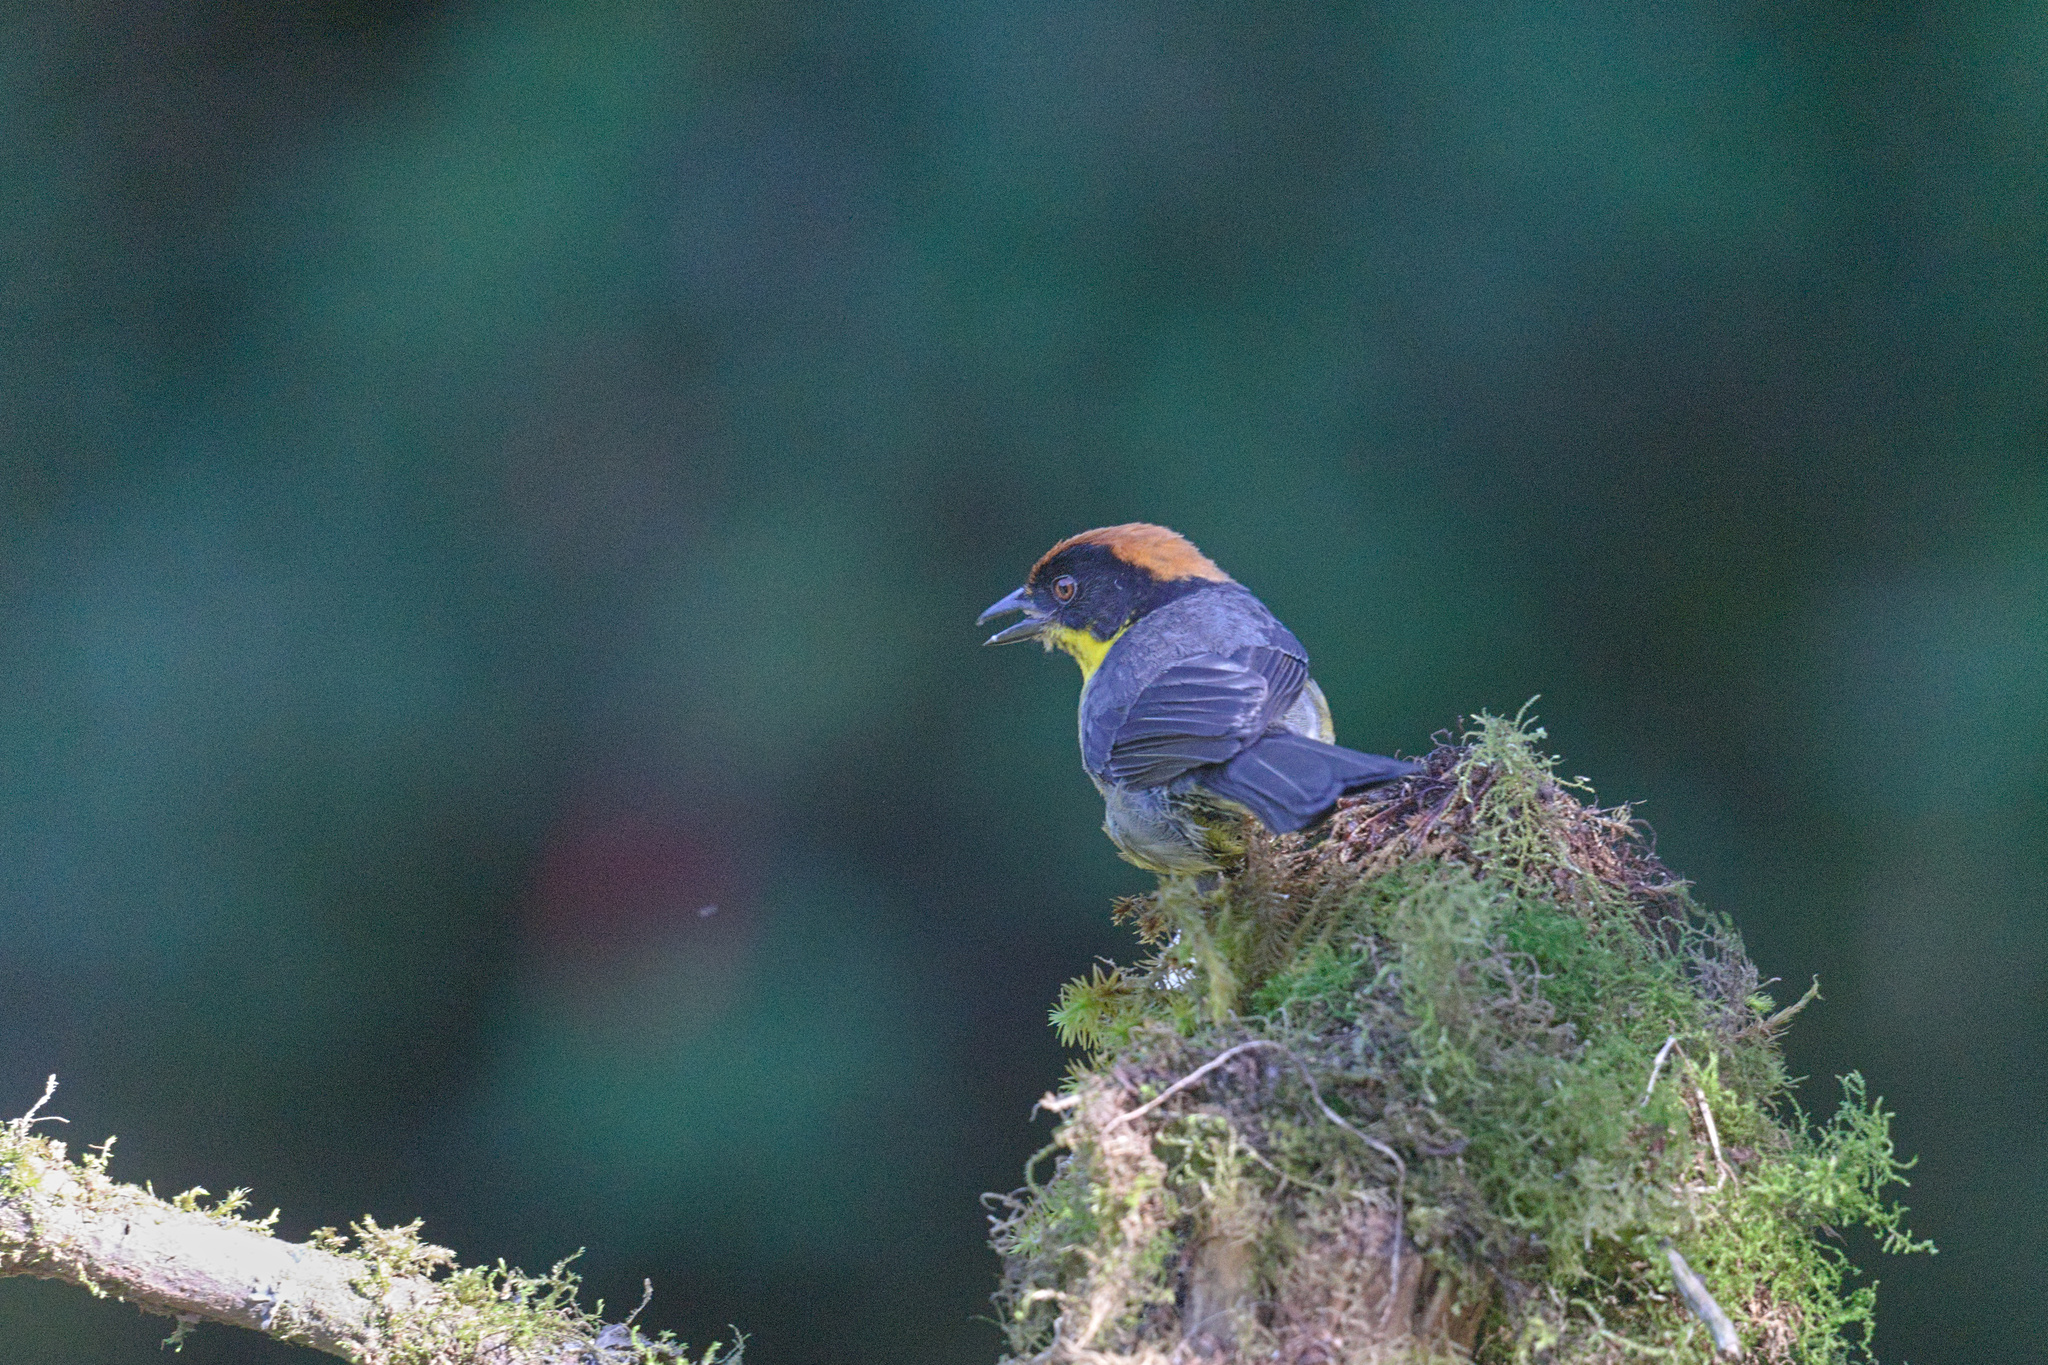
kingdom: Animalia
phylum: Chordata
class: Aves
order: Passeriformes
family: Passerellidae
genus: Atlapetes
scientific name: Atlapetes latinuchus
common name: Yellow-breasted brushfinch
